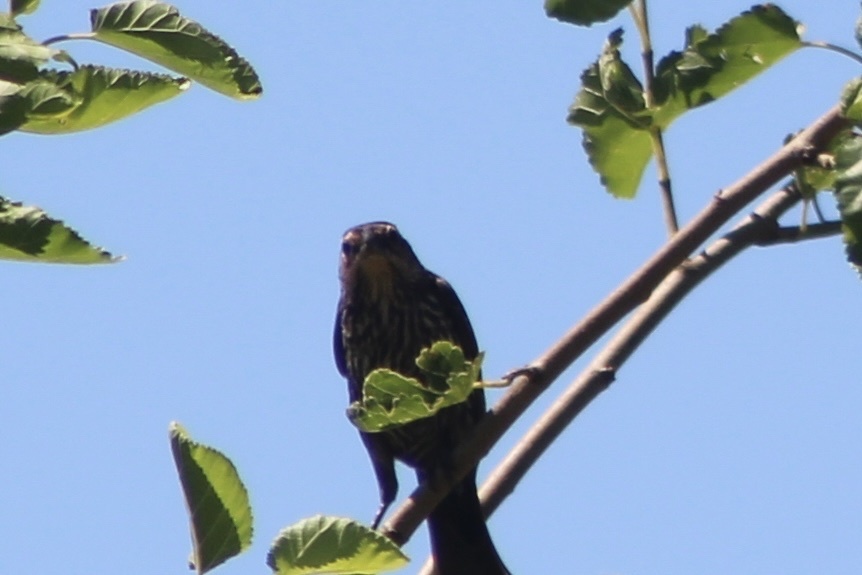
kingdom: Animalia
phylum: Chordata
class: Aves
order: Passeriformes
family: Icteridae
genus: Agelaius
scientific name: Agelaius phoeniceus
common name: Red-winged blackbird
